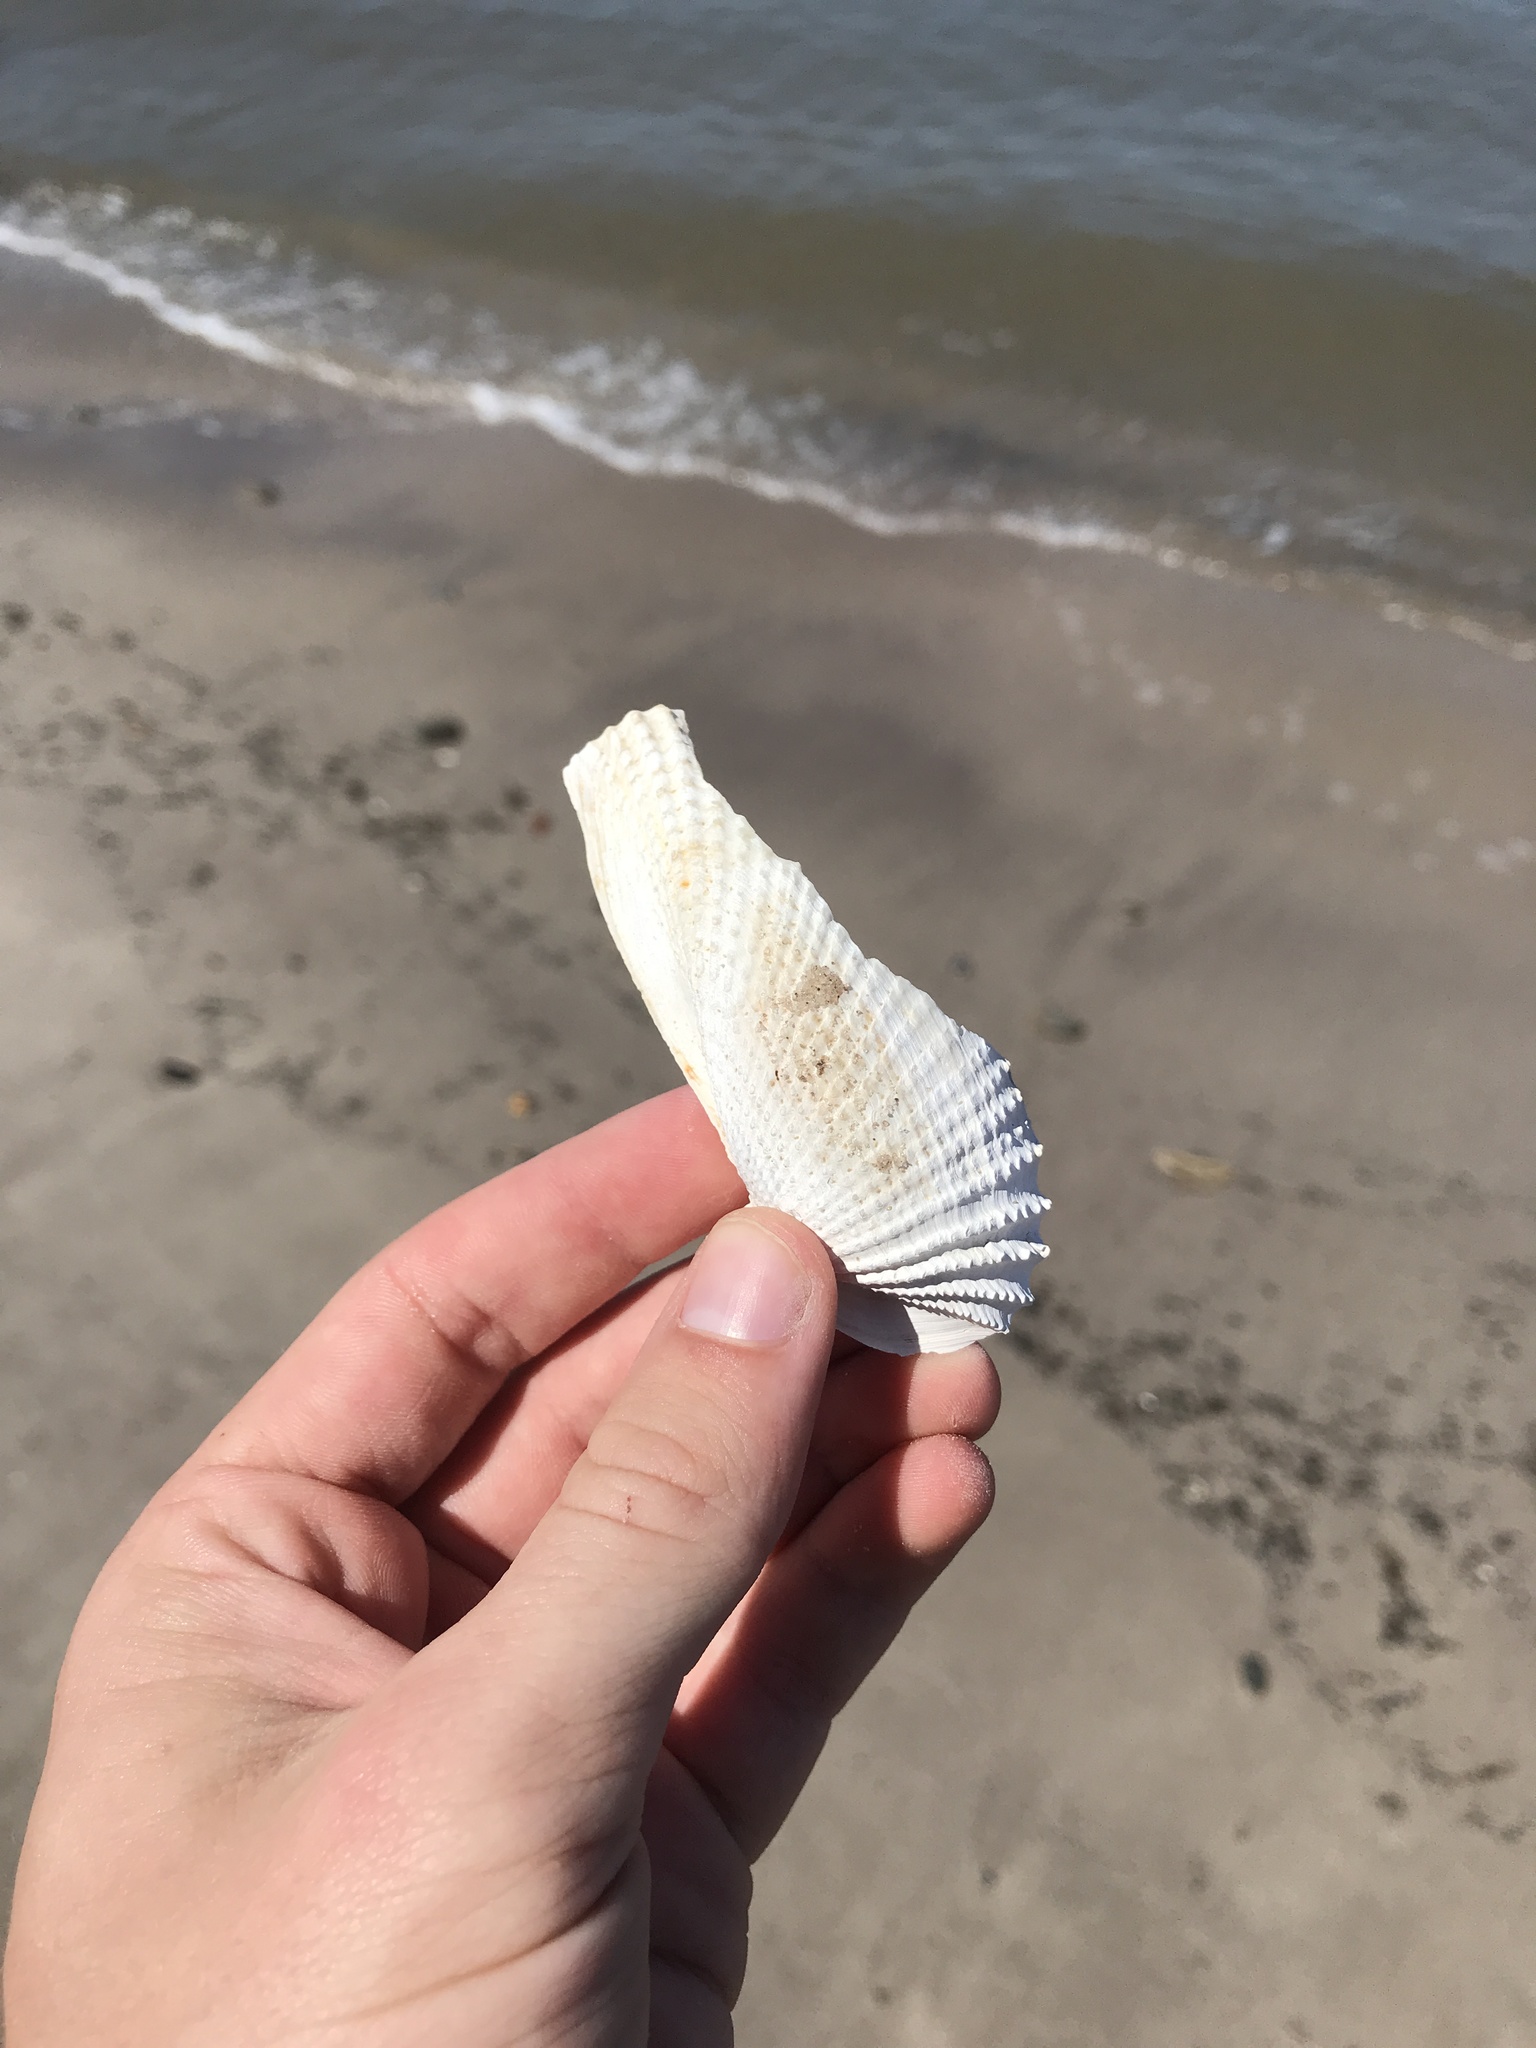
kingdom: Animalia
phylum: Mollusca
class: Bivalvia
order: Myida
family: Pholadidae
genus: Cyrtopleura
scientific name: Cyrtopleura costata
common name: Angel wing
